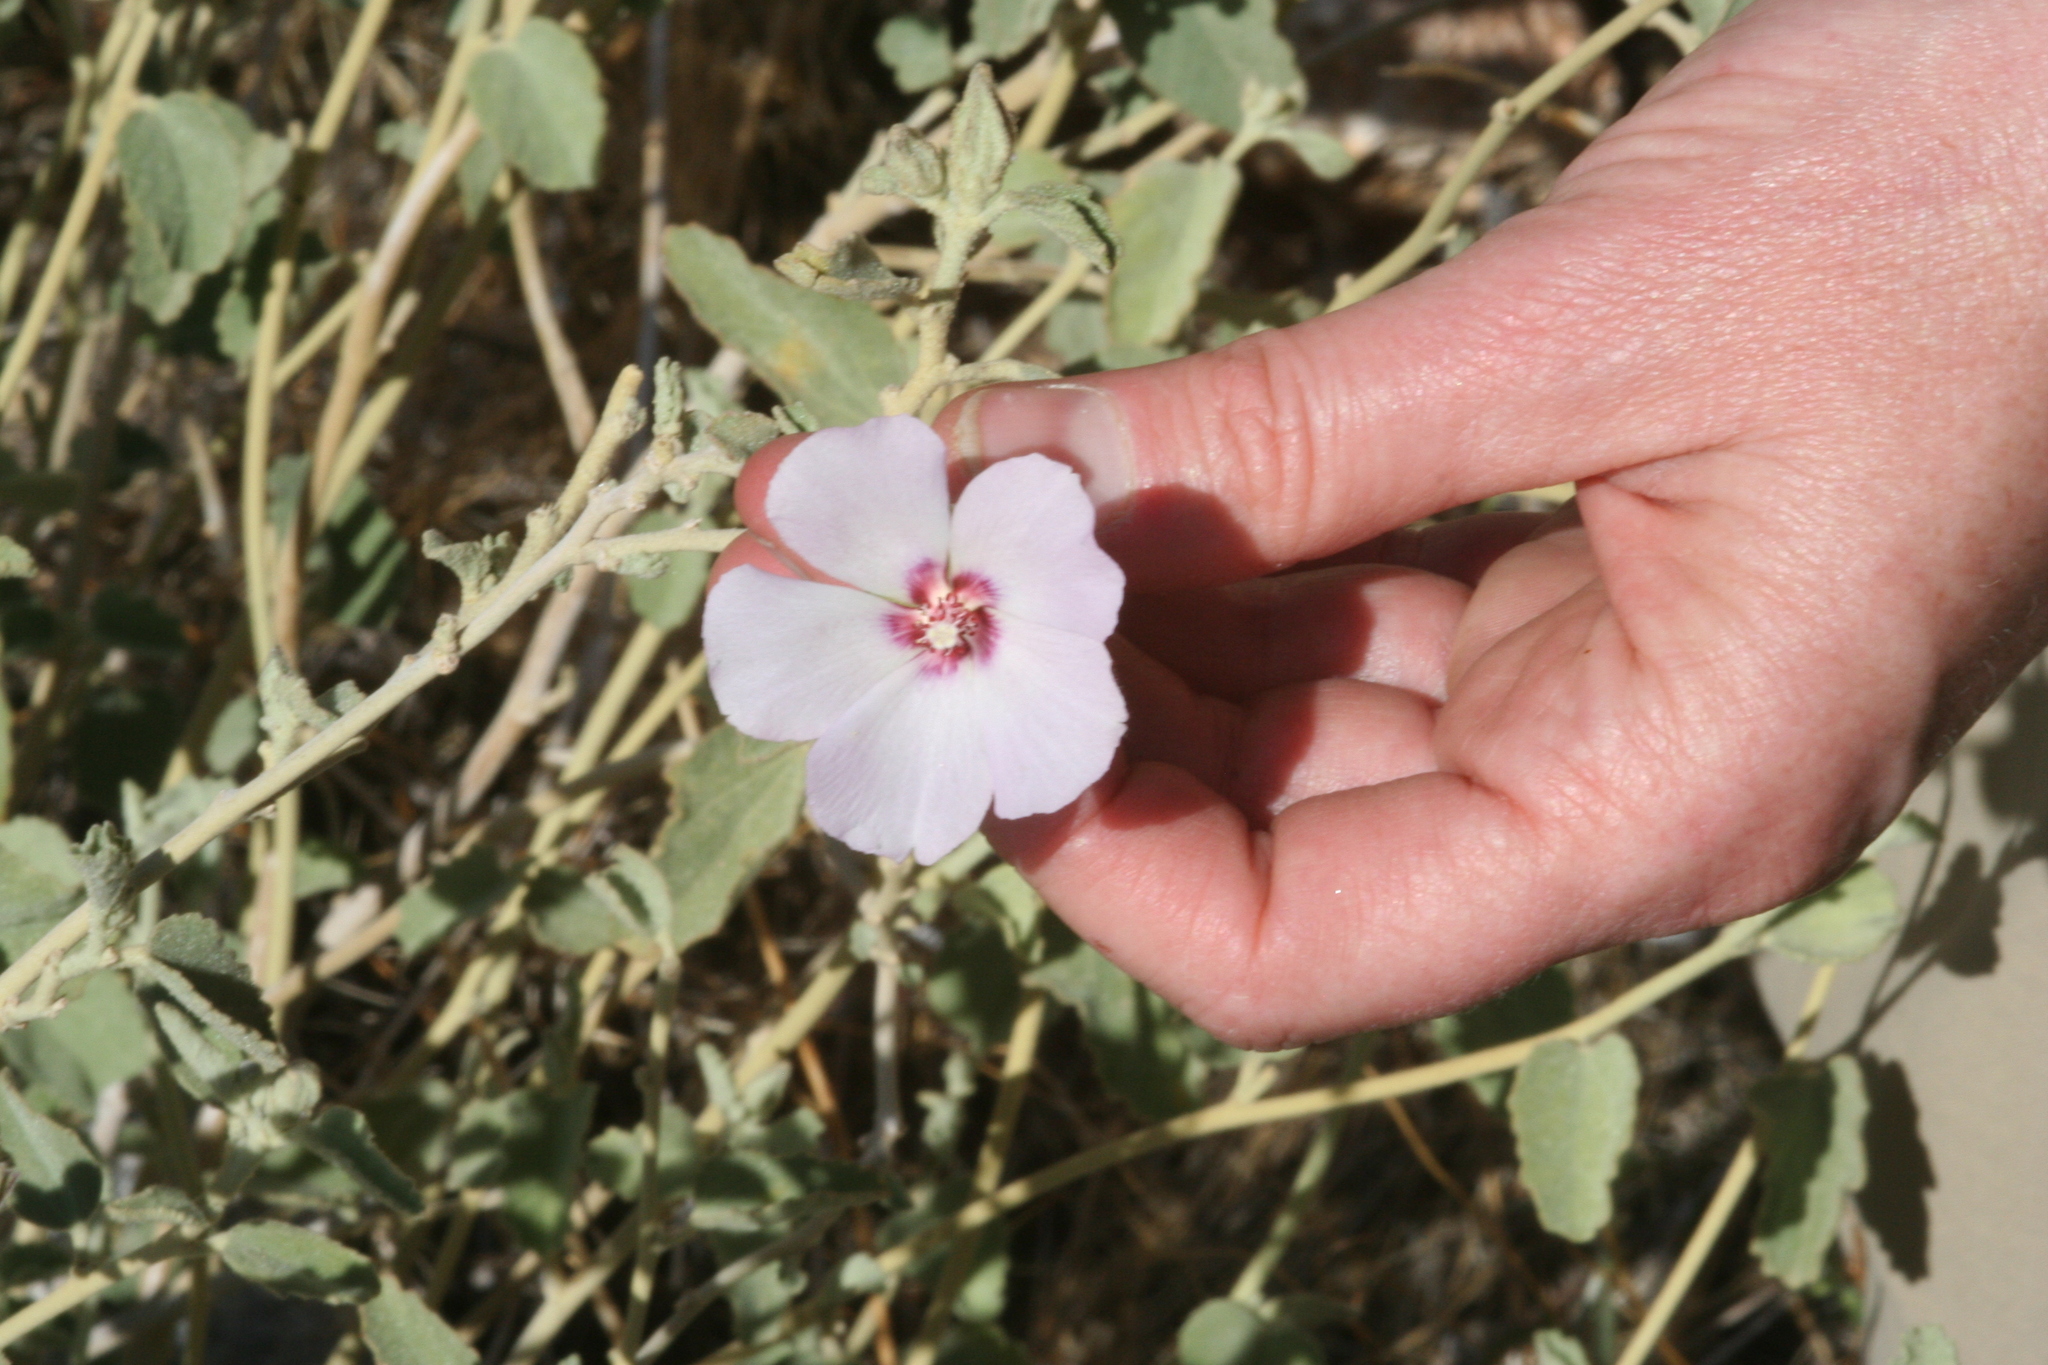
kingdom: Plantae
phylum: Tracheophyta
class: Magnoliopsida
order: Malvales
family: Malvaceae
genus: Hibiscus
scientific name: Hibiscus denudatus
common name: Paleface
